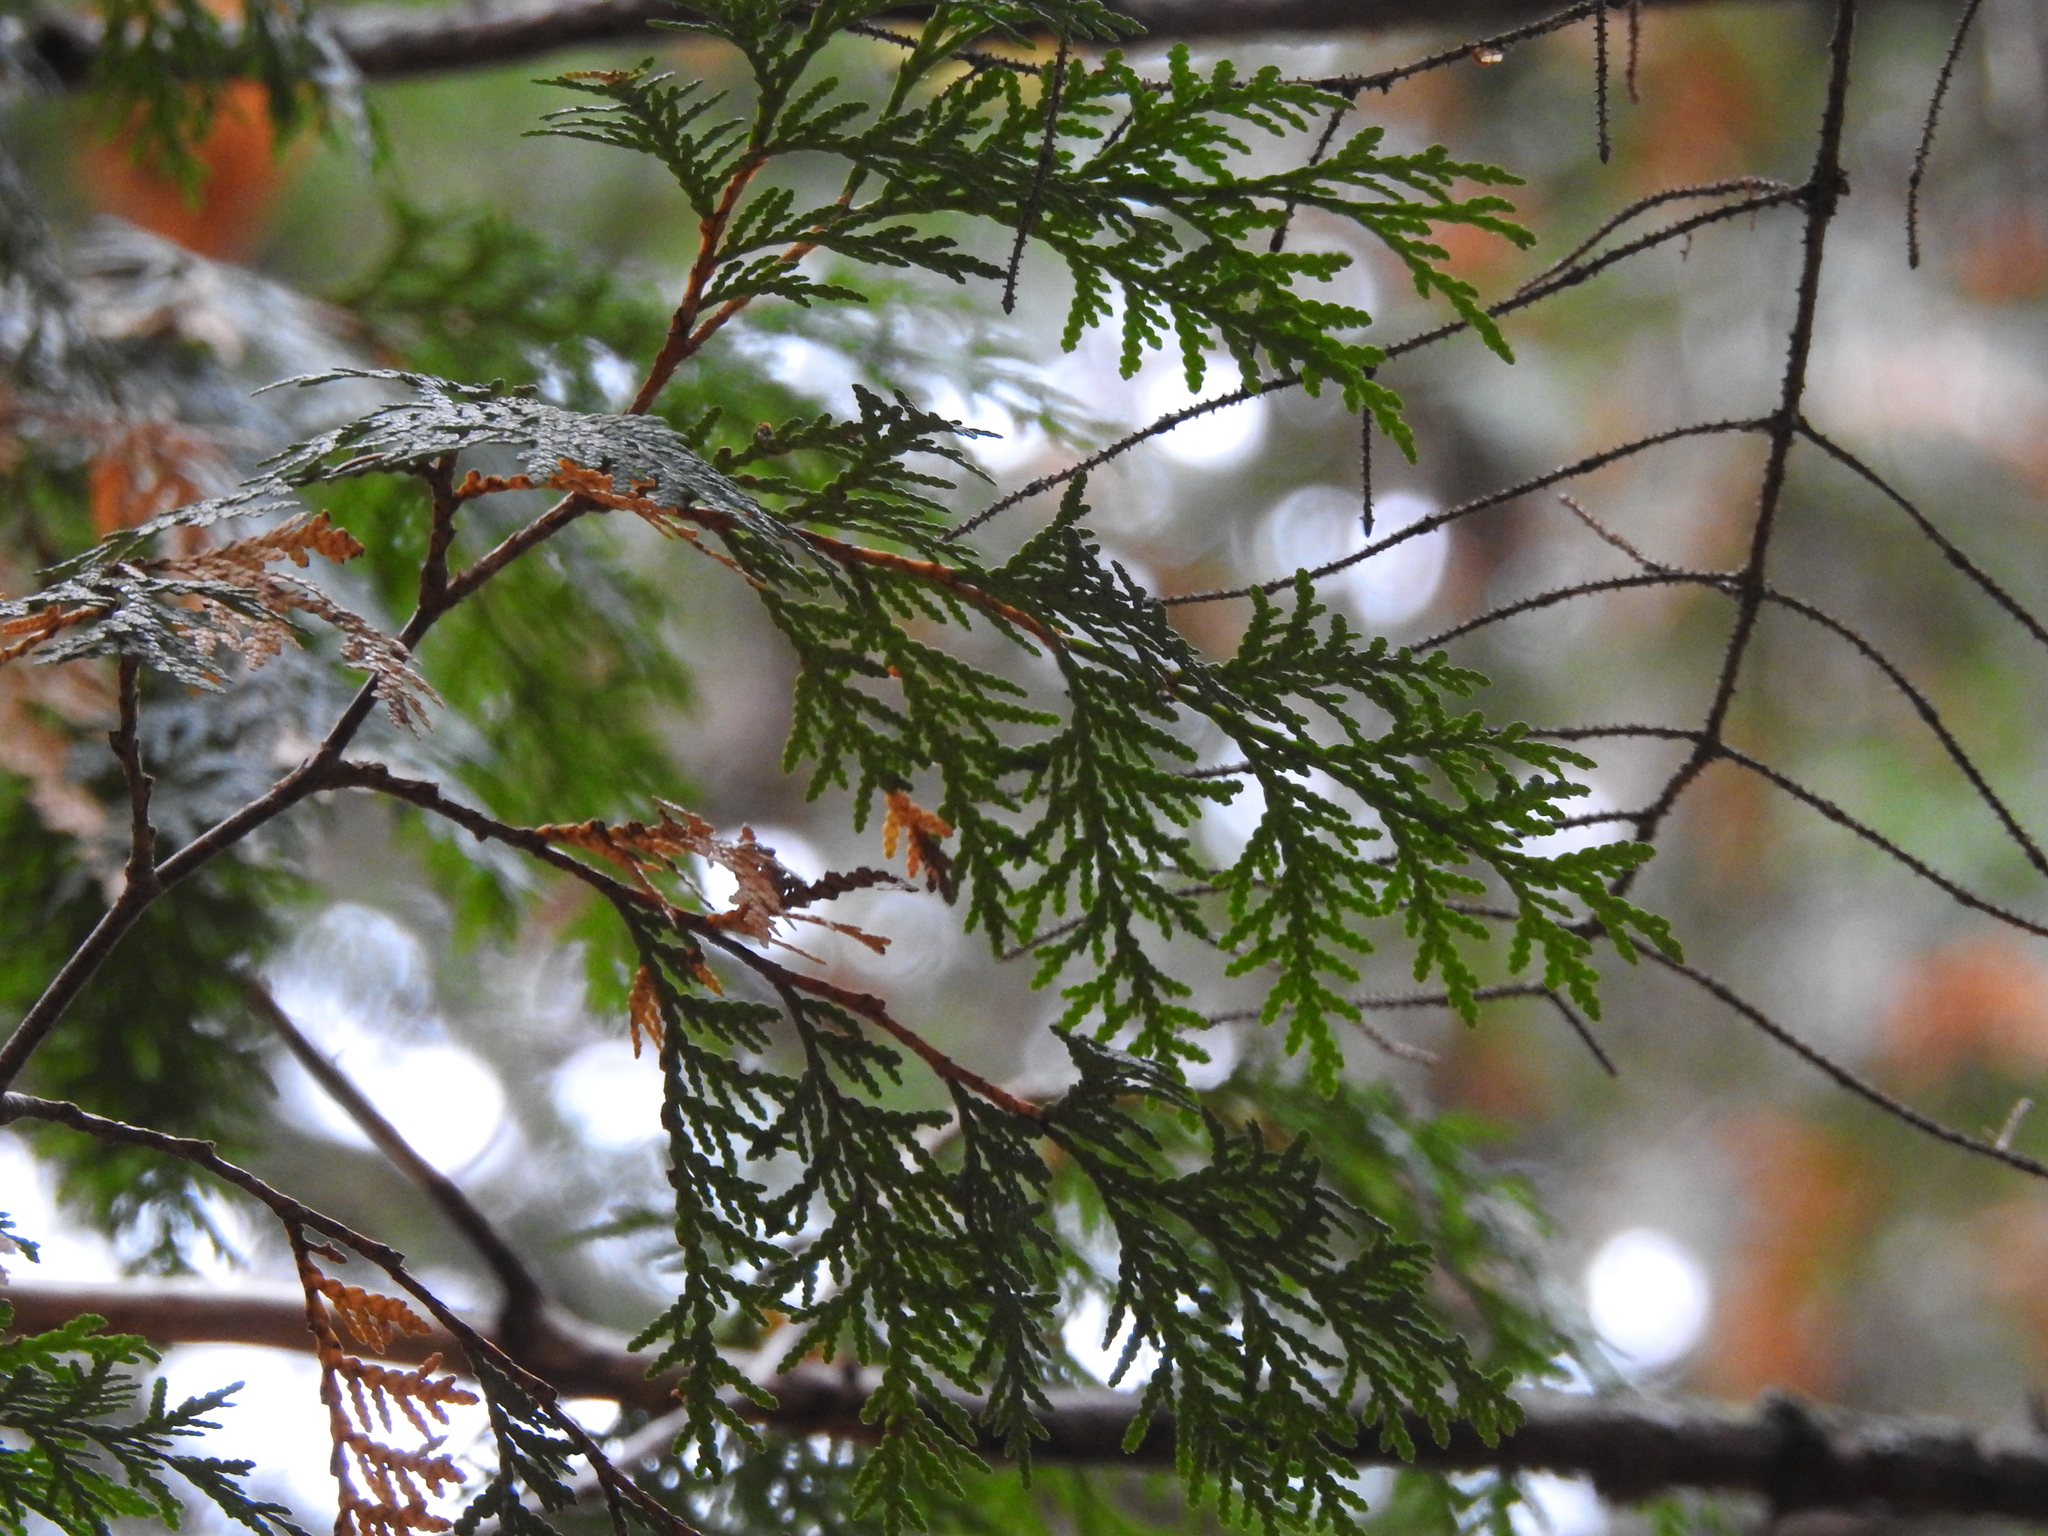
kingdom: Plantae
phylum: Tracheophyta
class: Pinopsida
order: Pinales
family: Cupressaceae
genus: Thuja
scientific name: Thuja occidentalis
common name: Northern white-cedar
